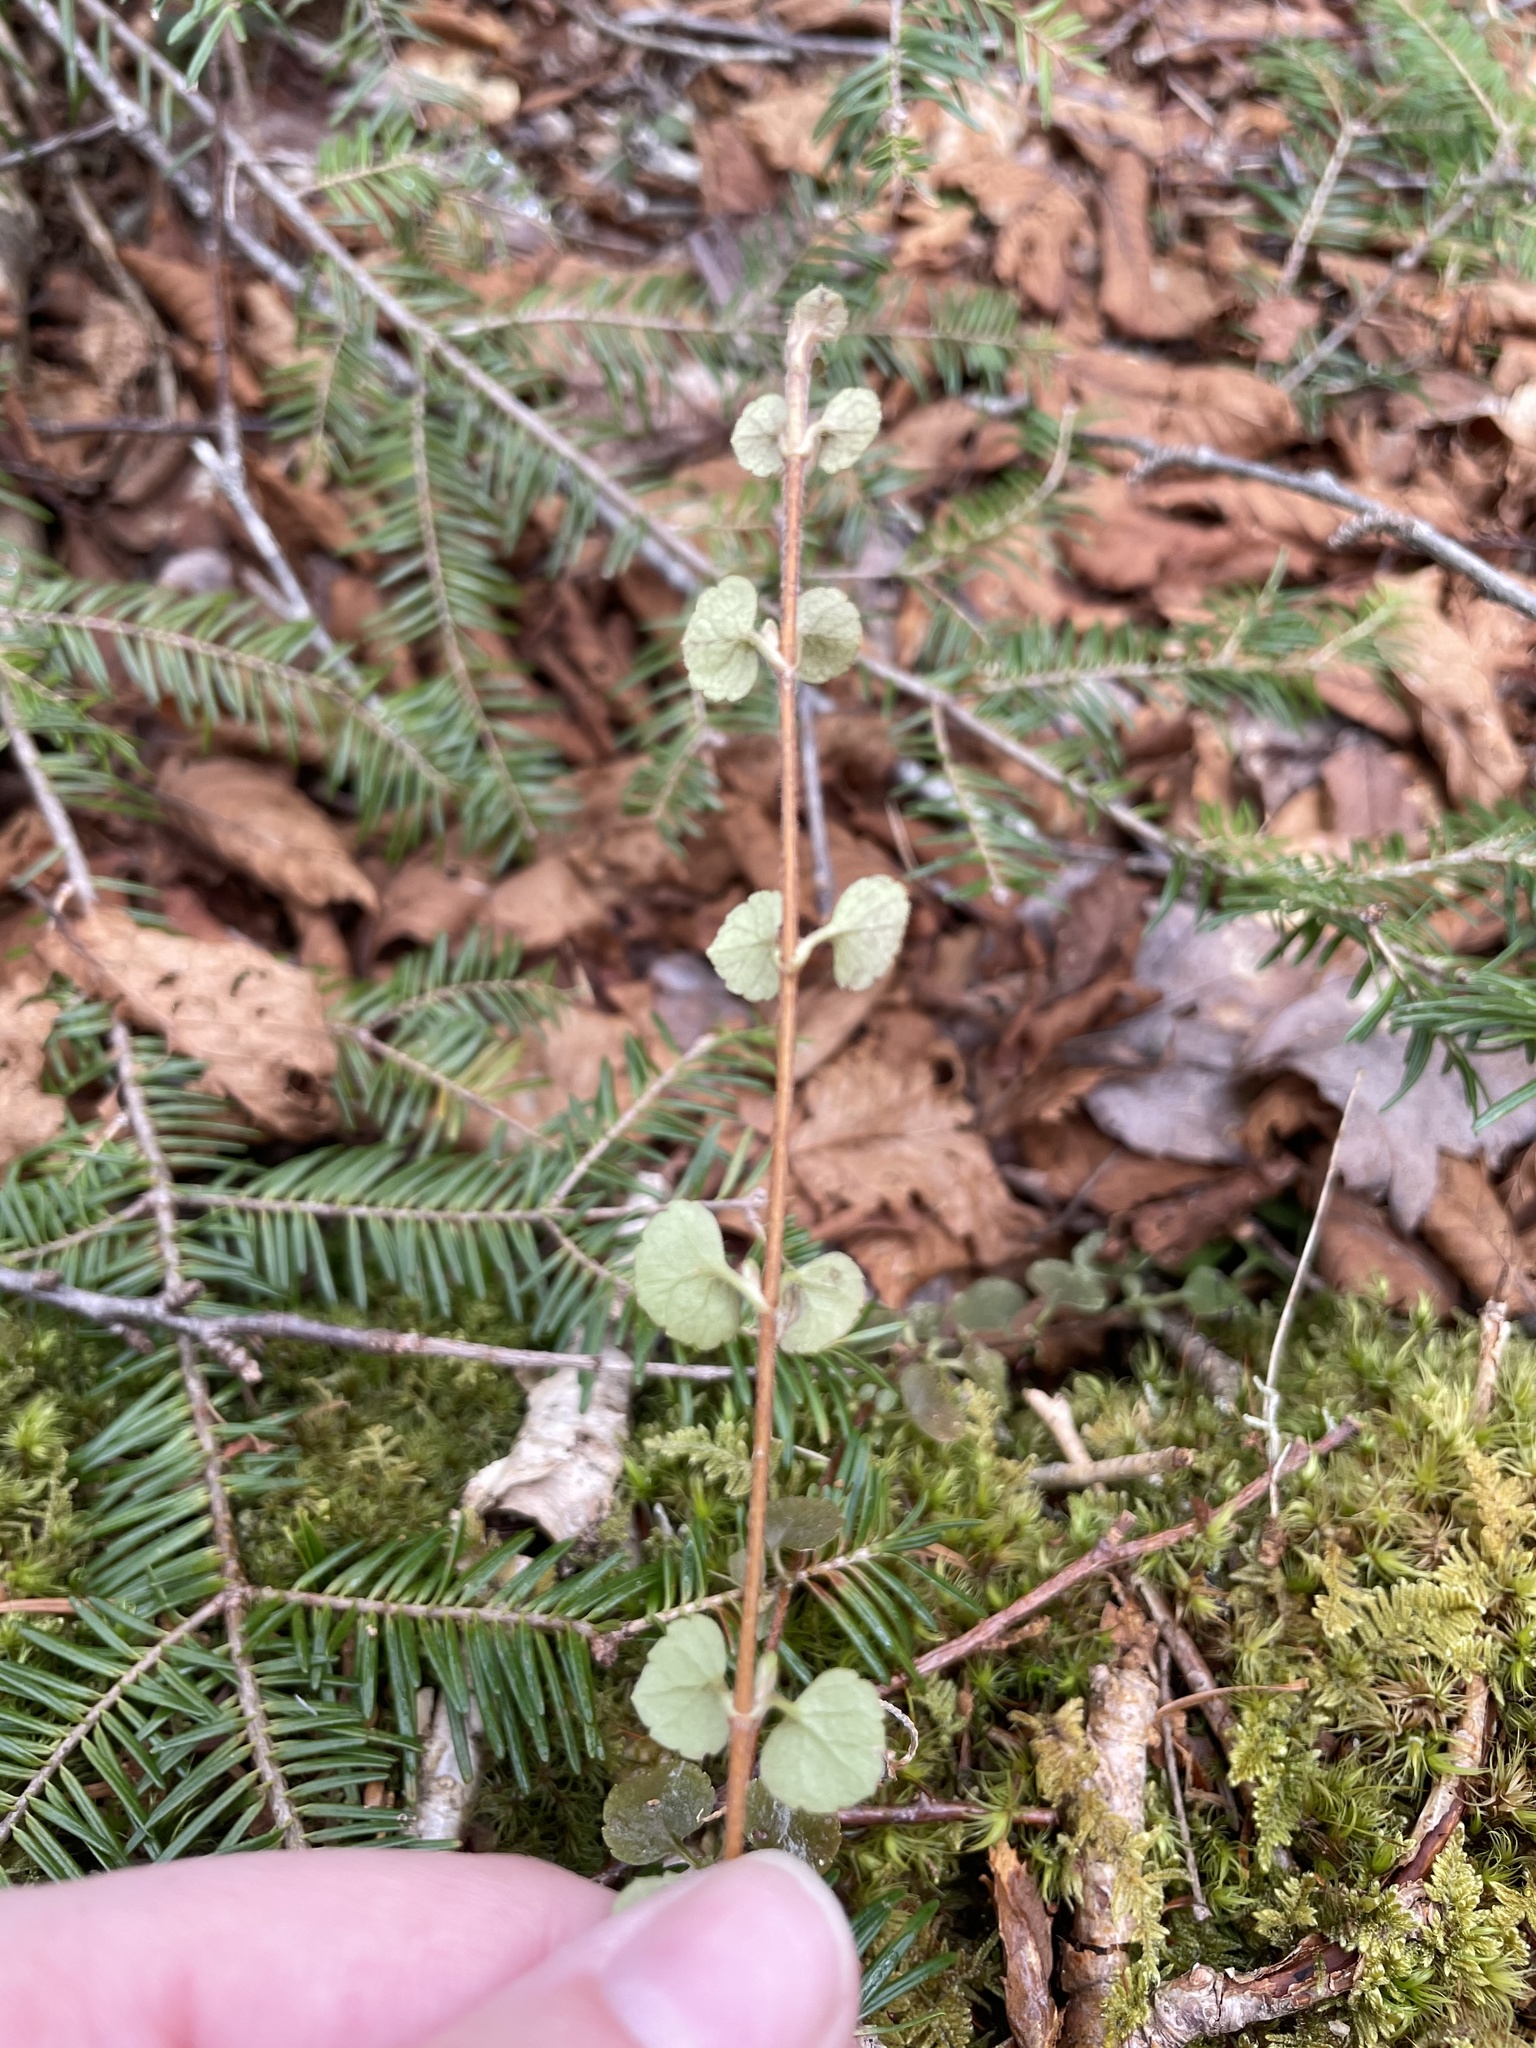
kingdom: Plantae
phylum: Tracheophyta
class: Magnoliopsida
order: Dipsacales
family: Caprifoliaceae
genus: Linnaea
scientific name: Linnaea borealis
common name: Twinflower
